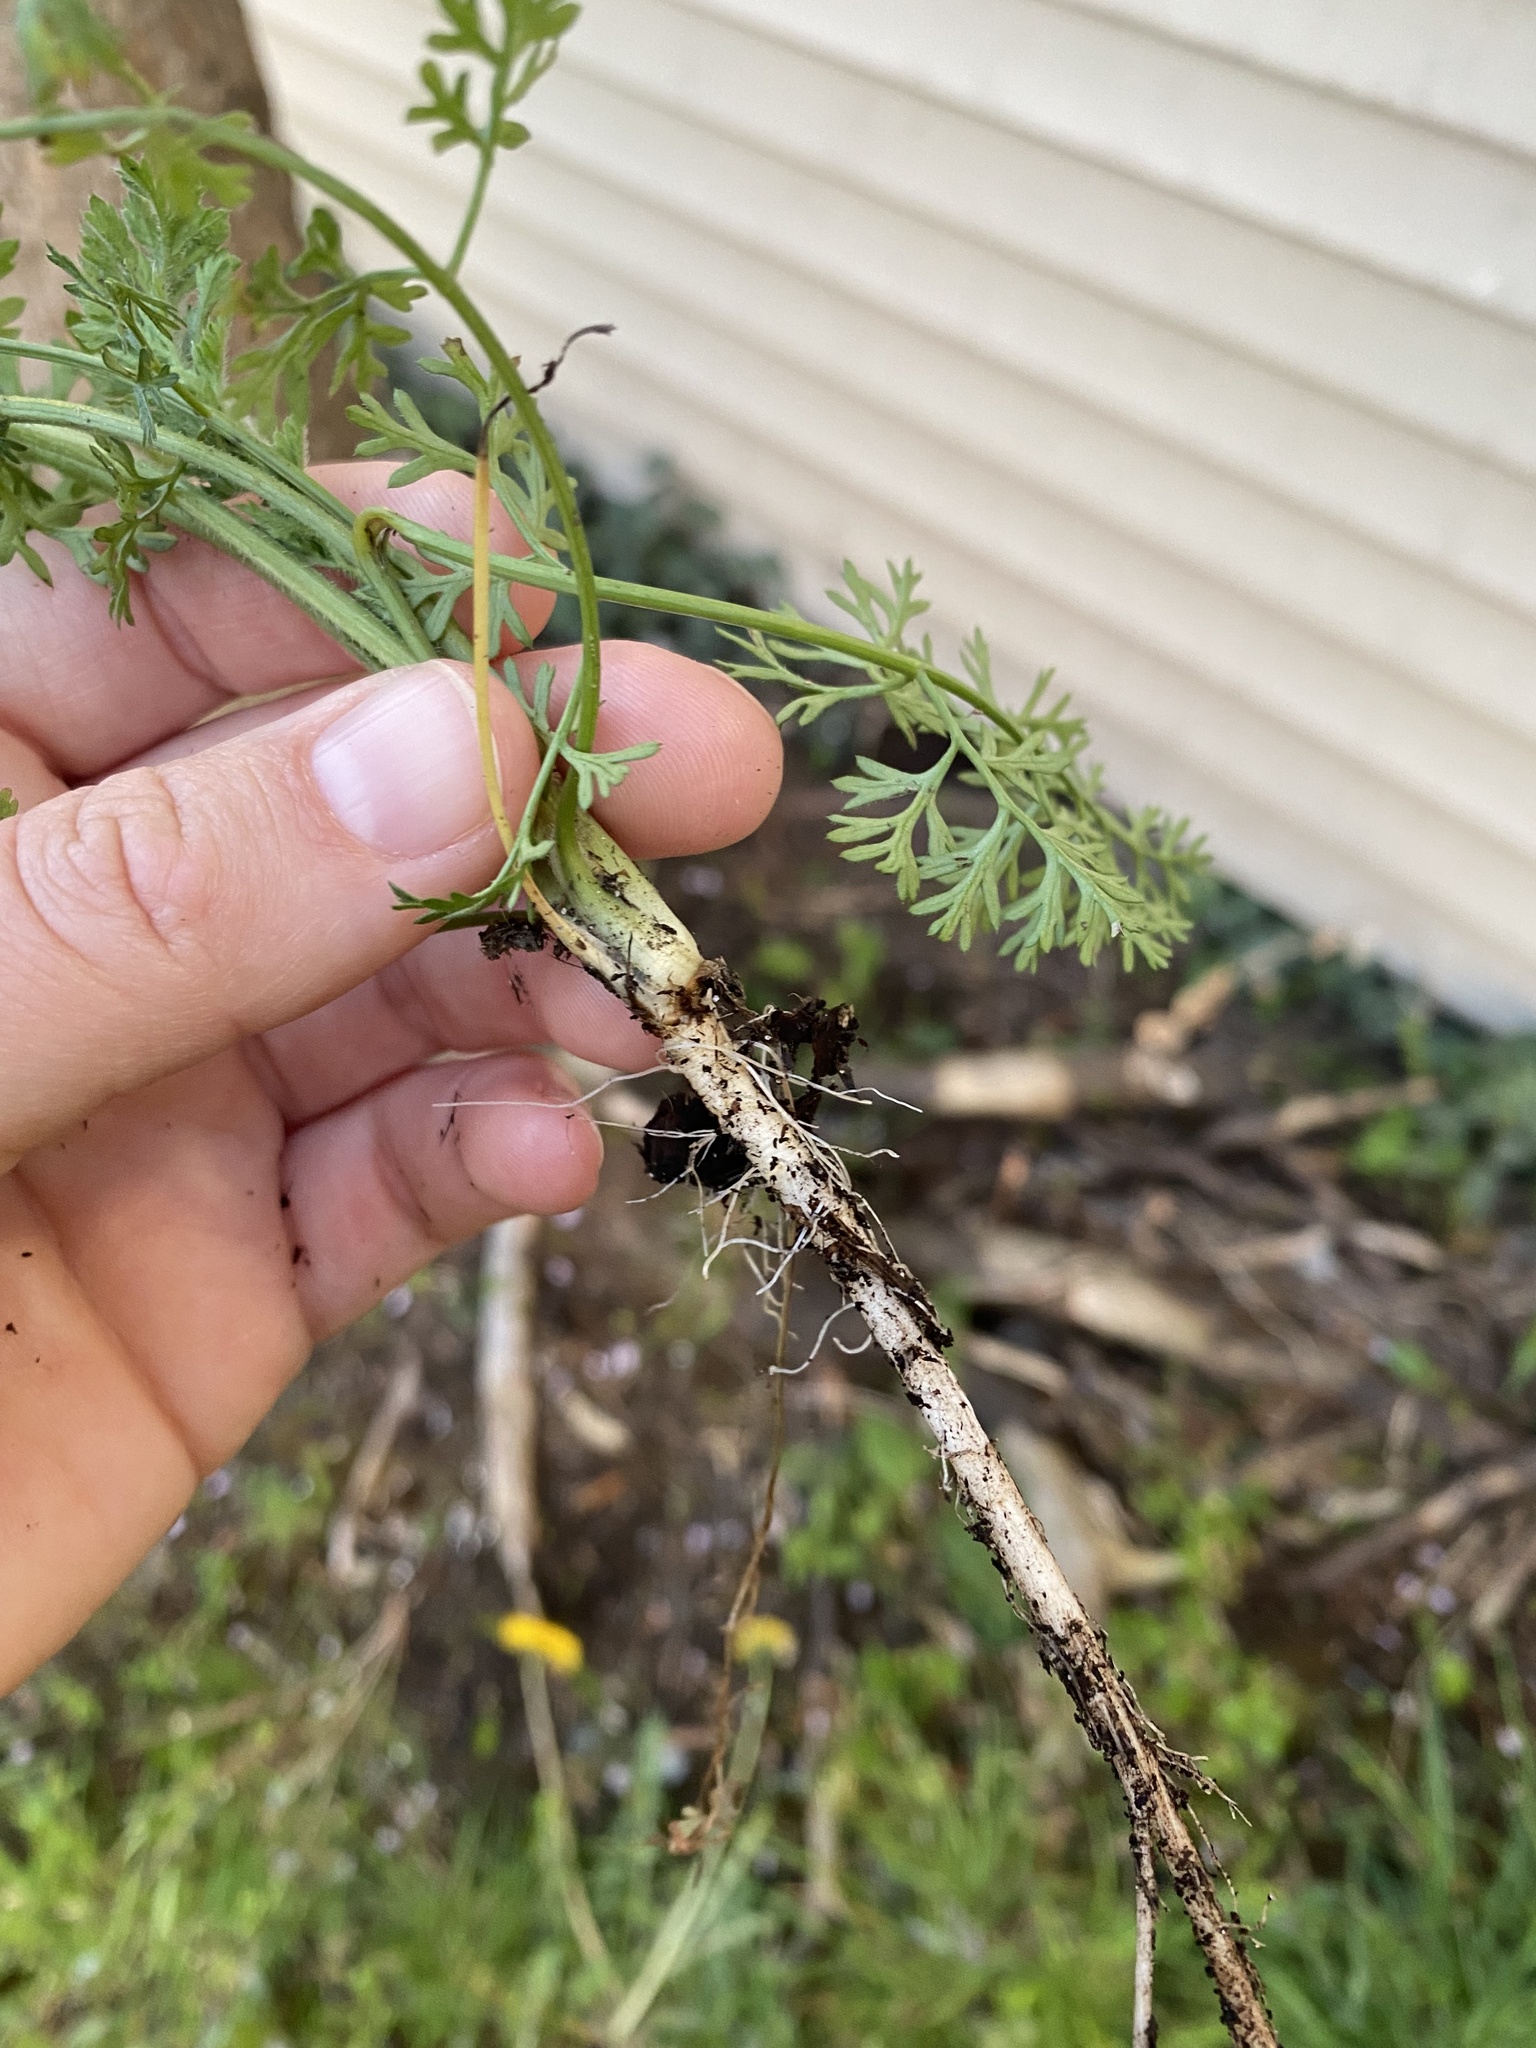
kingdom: Plantae
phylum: Tracheophyta
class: Magnoliopsida
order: Apiales
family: Apiaceae
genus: Daucus
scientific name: Daucus carota
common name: Wild carrot
